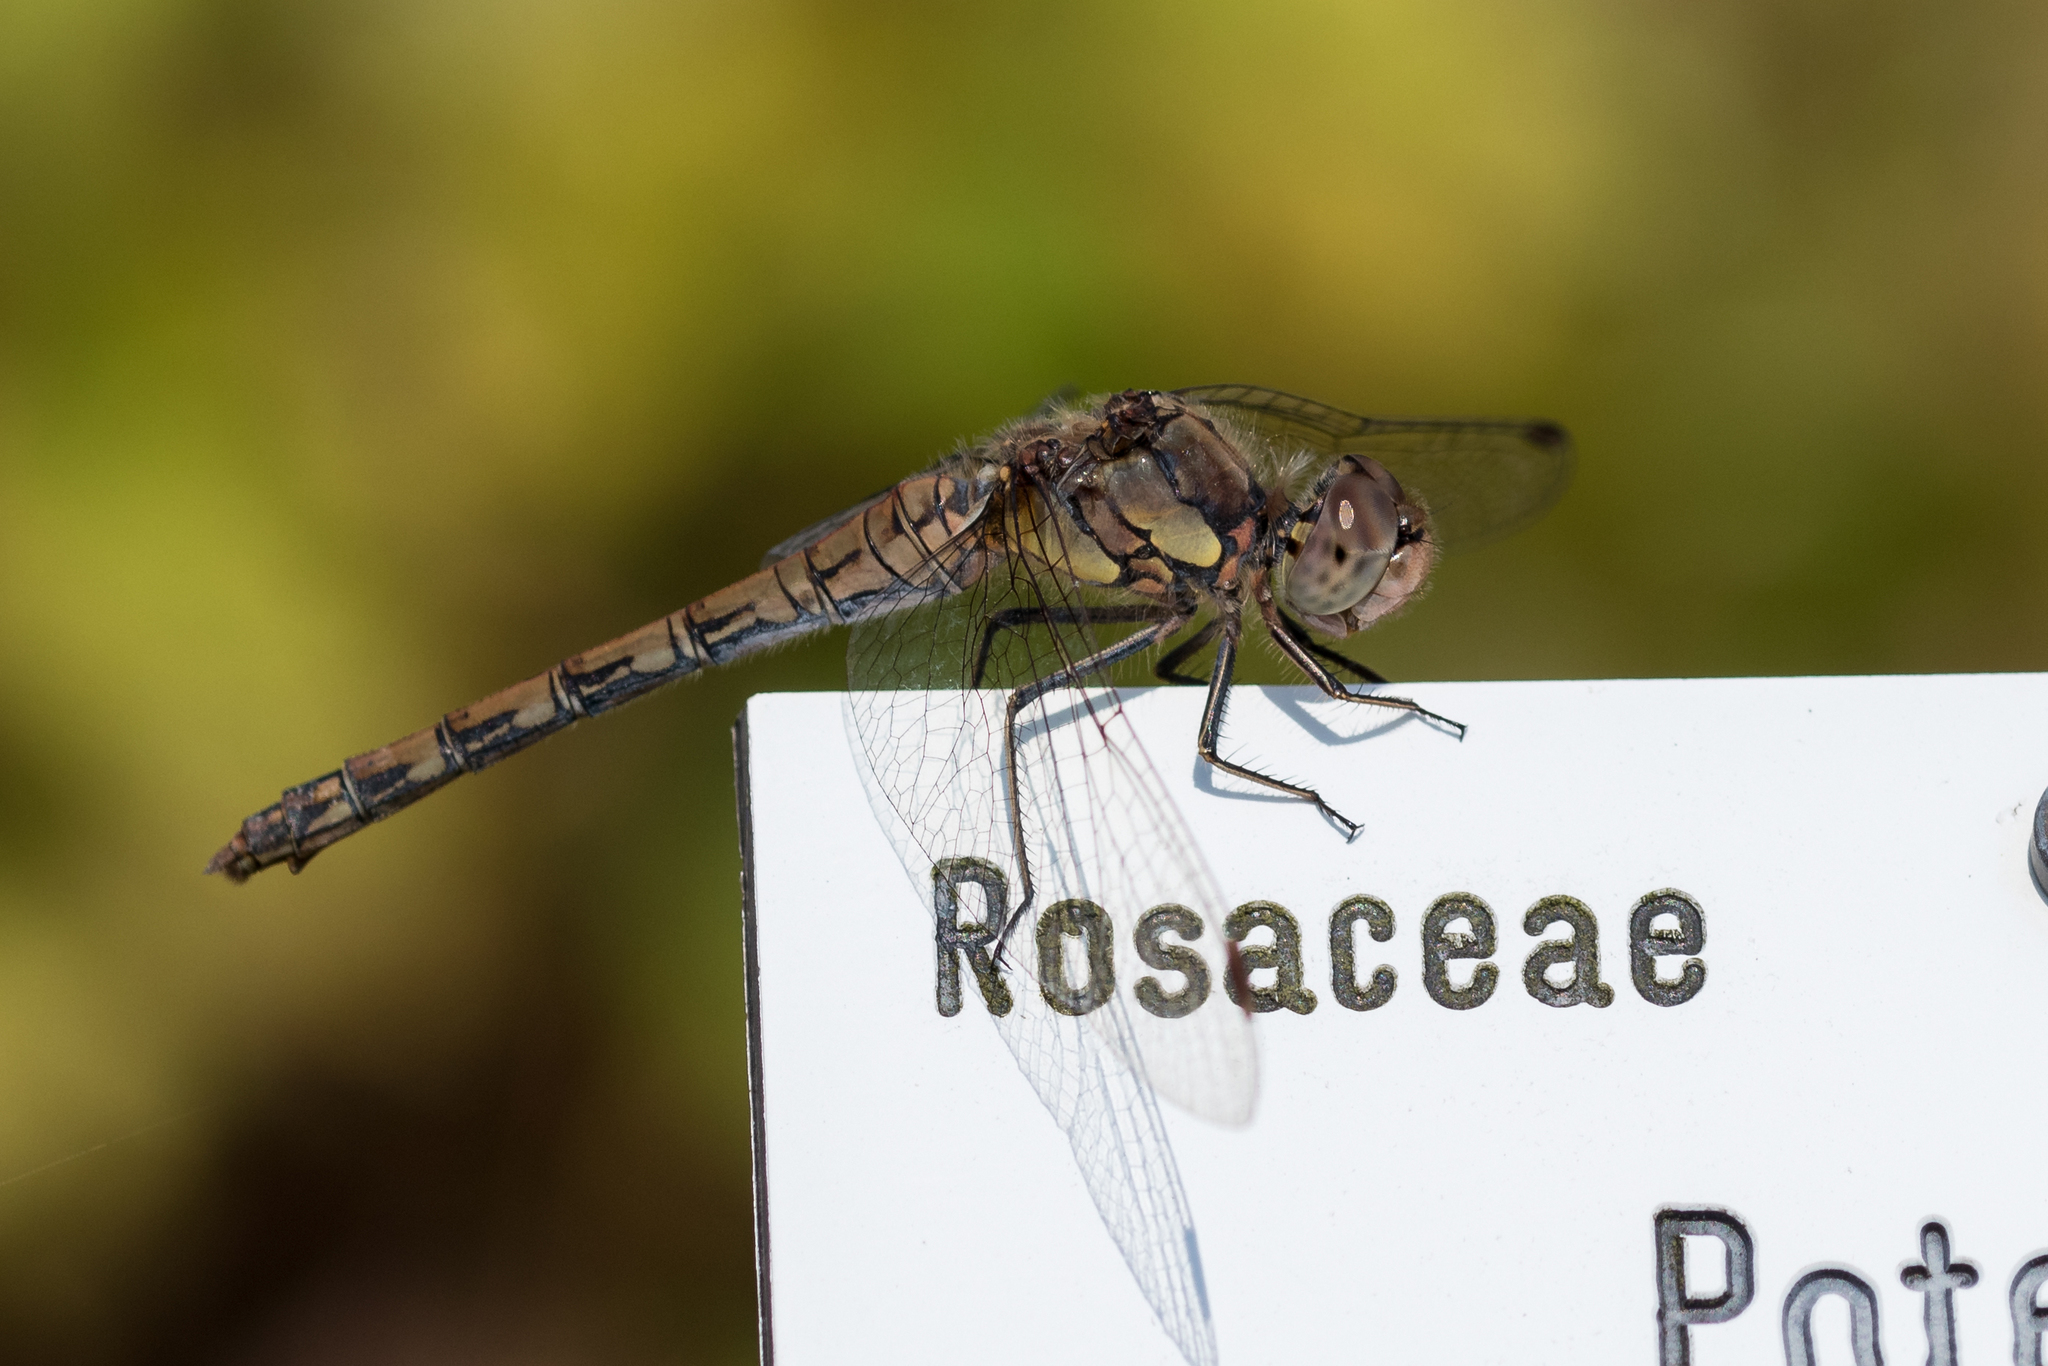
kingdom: Animalia
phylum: Arthropoda
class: Insecta
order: Odonata
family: Libellulidae
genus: Sympetrum
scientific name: Sympetrum striolatum
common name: Common darter
